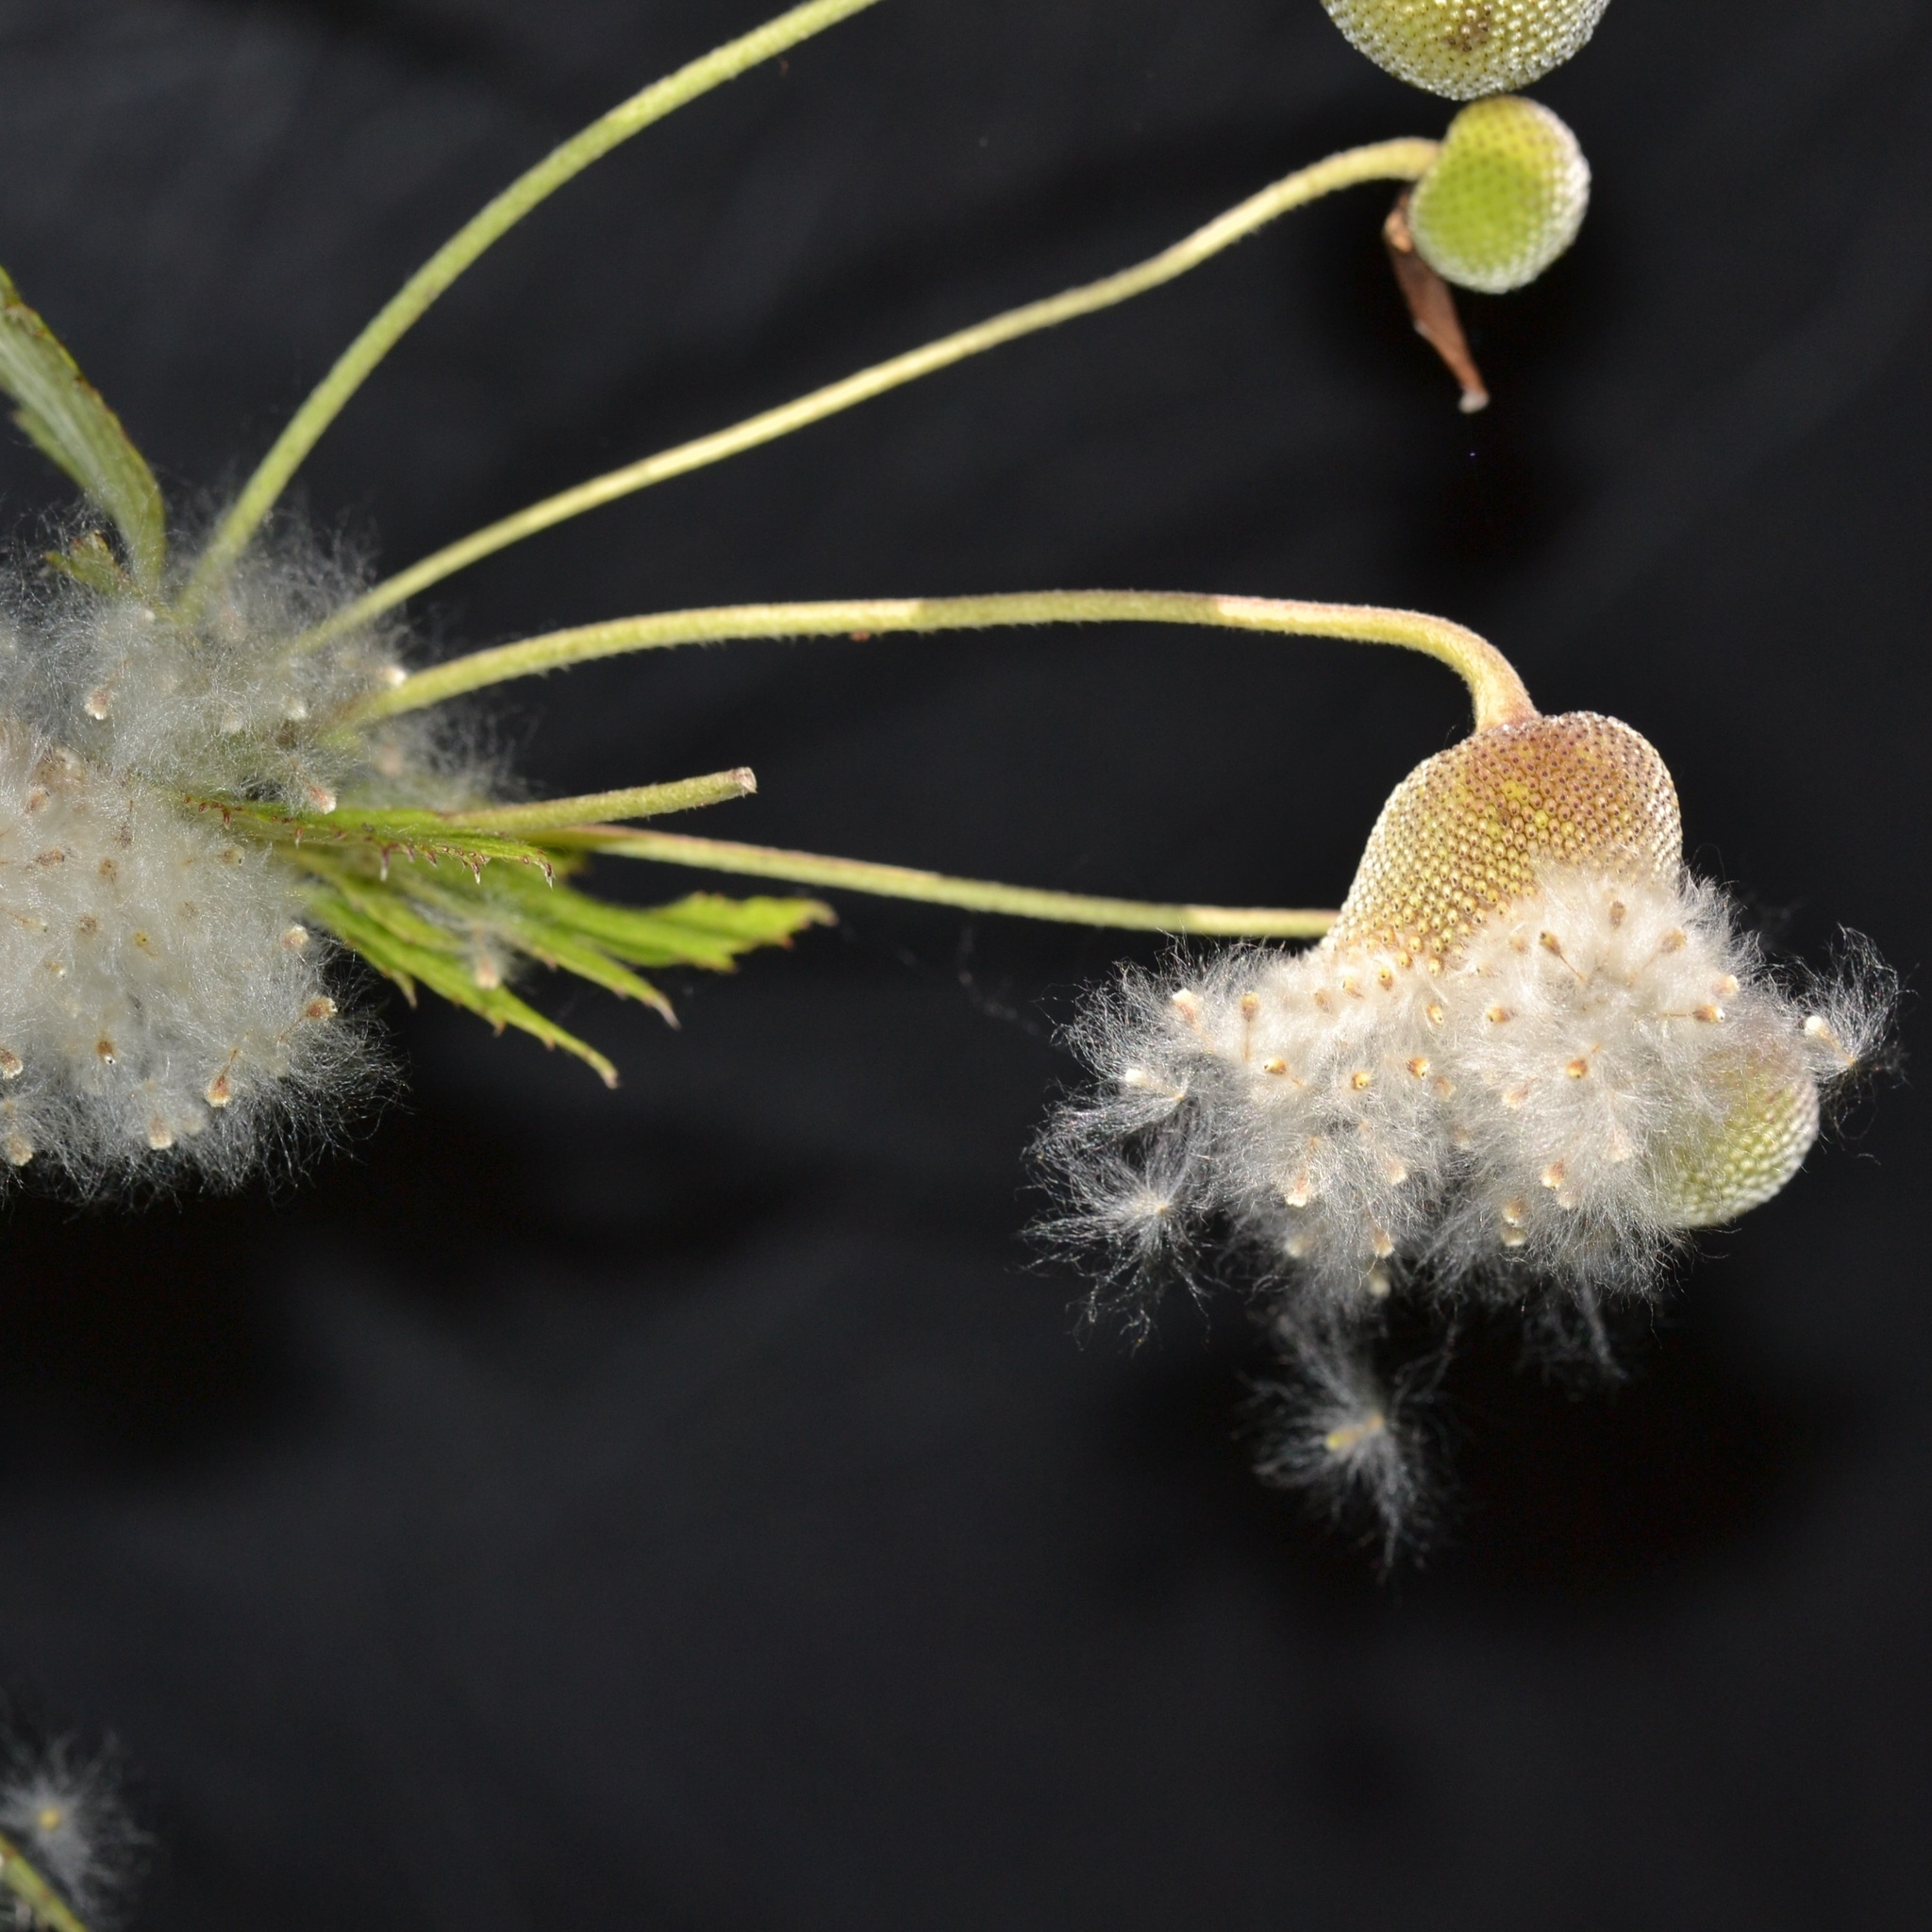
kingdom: Plantae
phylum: Tracheophyta
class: Magnoliopsida
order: Ranunculales
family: Ranunculaceae
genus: Eriocapitella
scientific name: Eriocapitella japonica
